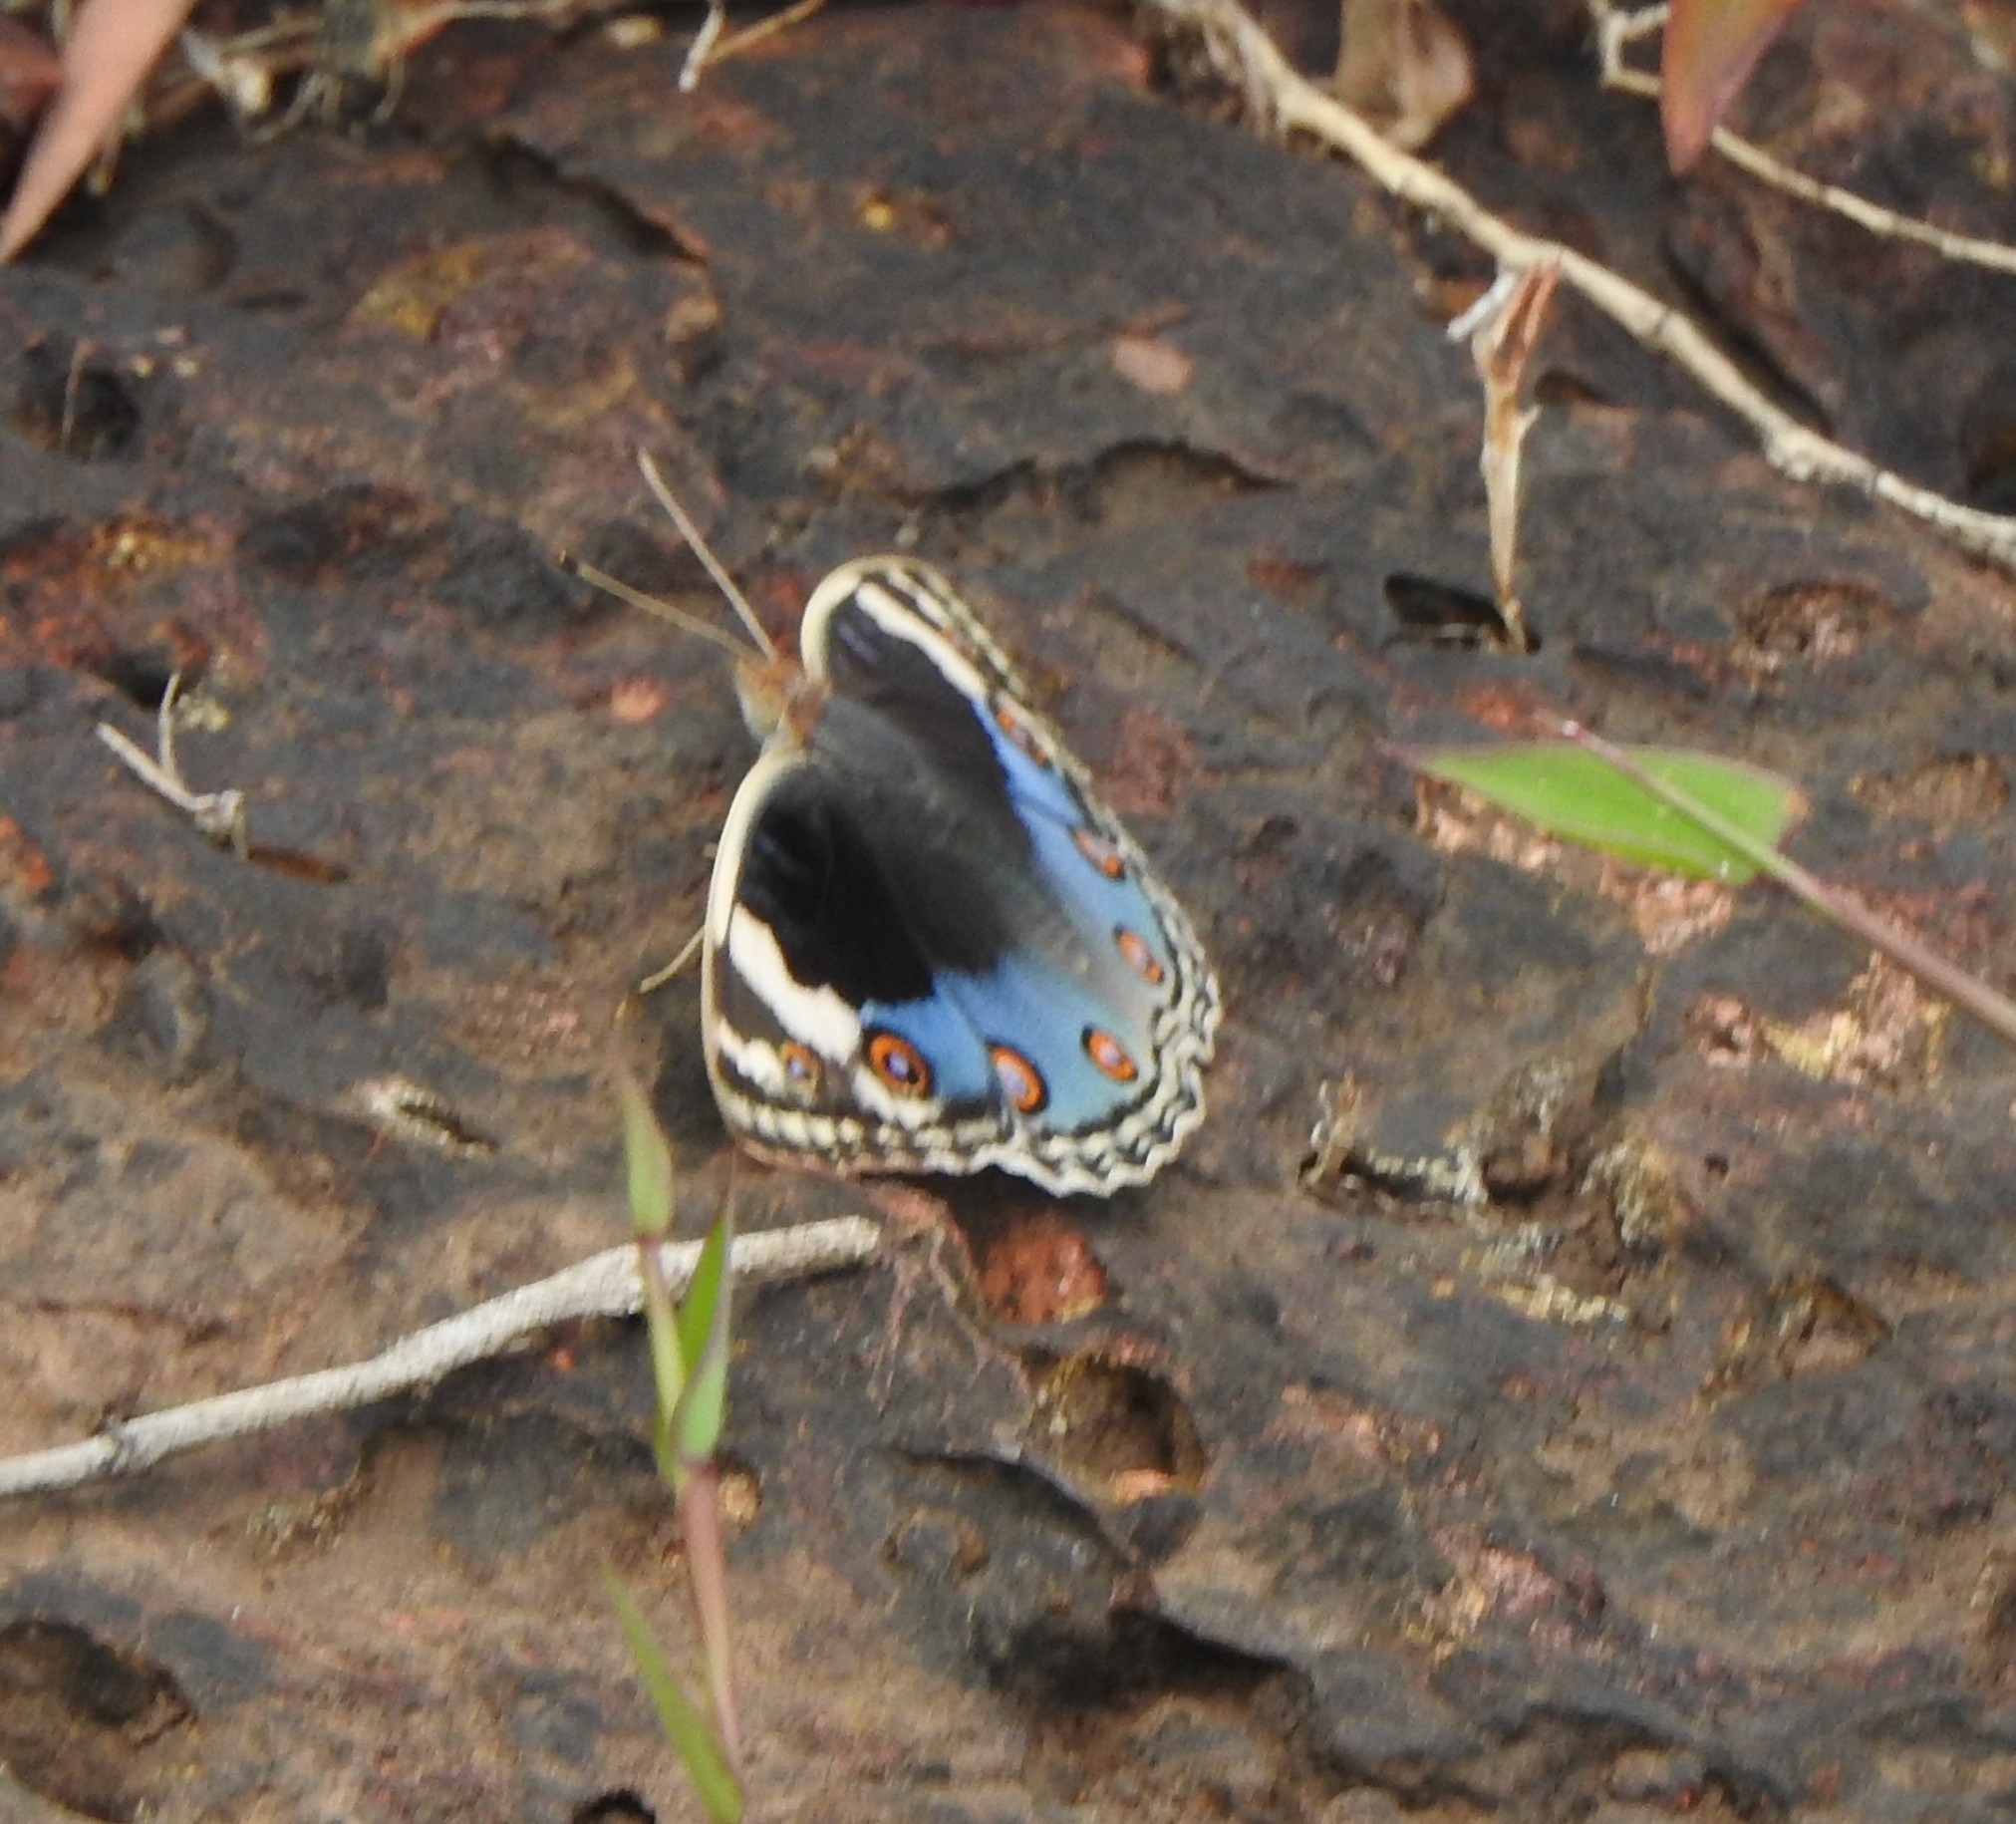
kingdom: Animalia
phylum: Arthropoda
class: Insecta
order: Lepidoptera
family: Nymphalidae
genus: Junonia
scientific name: Junonia orithya
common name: Blue pansy
